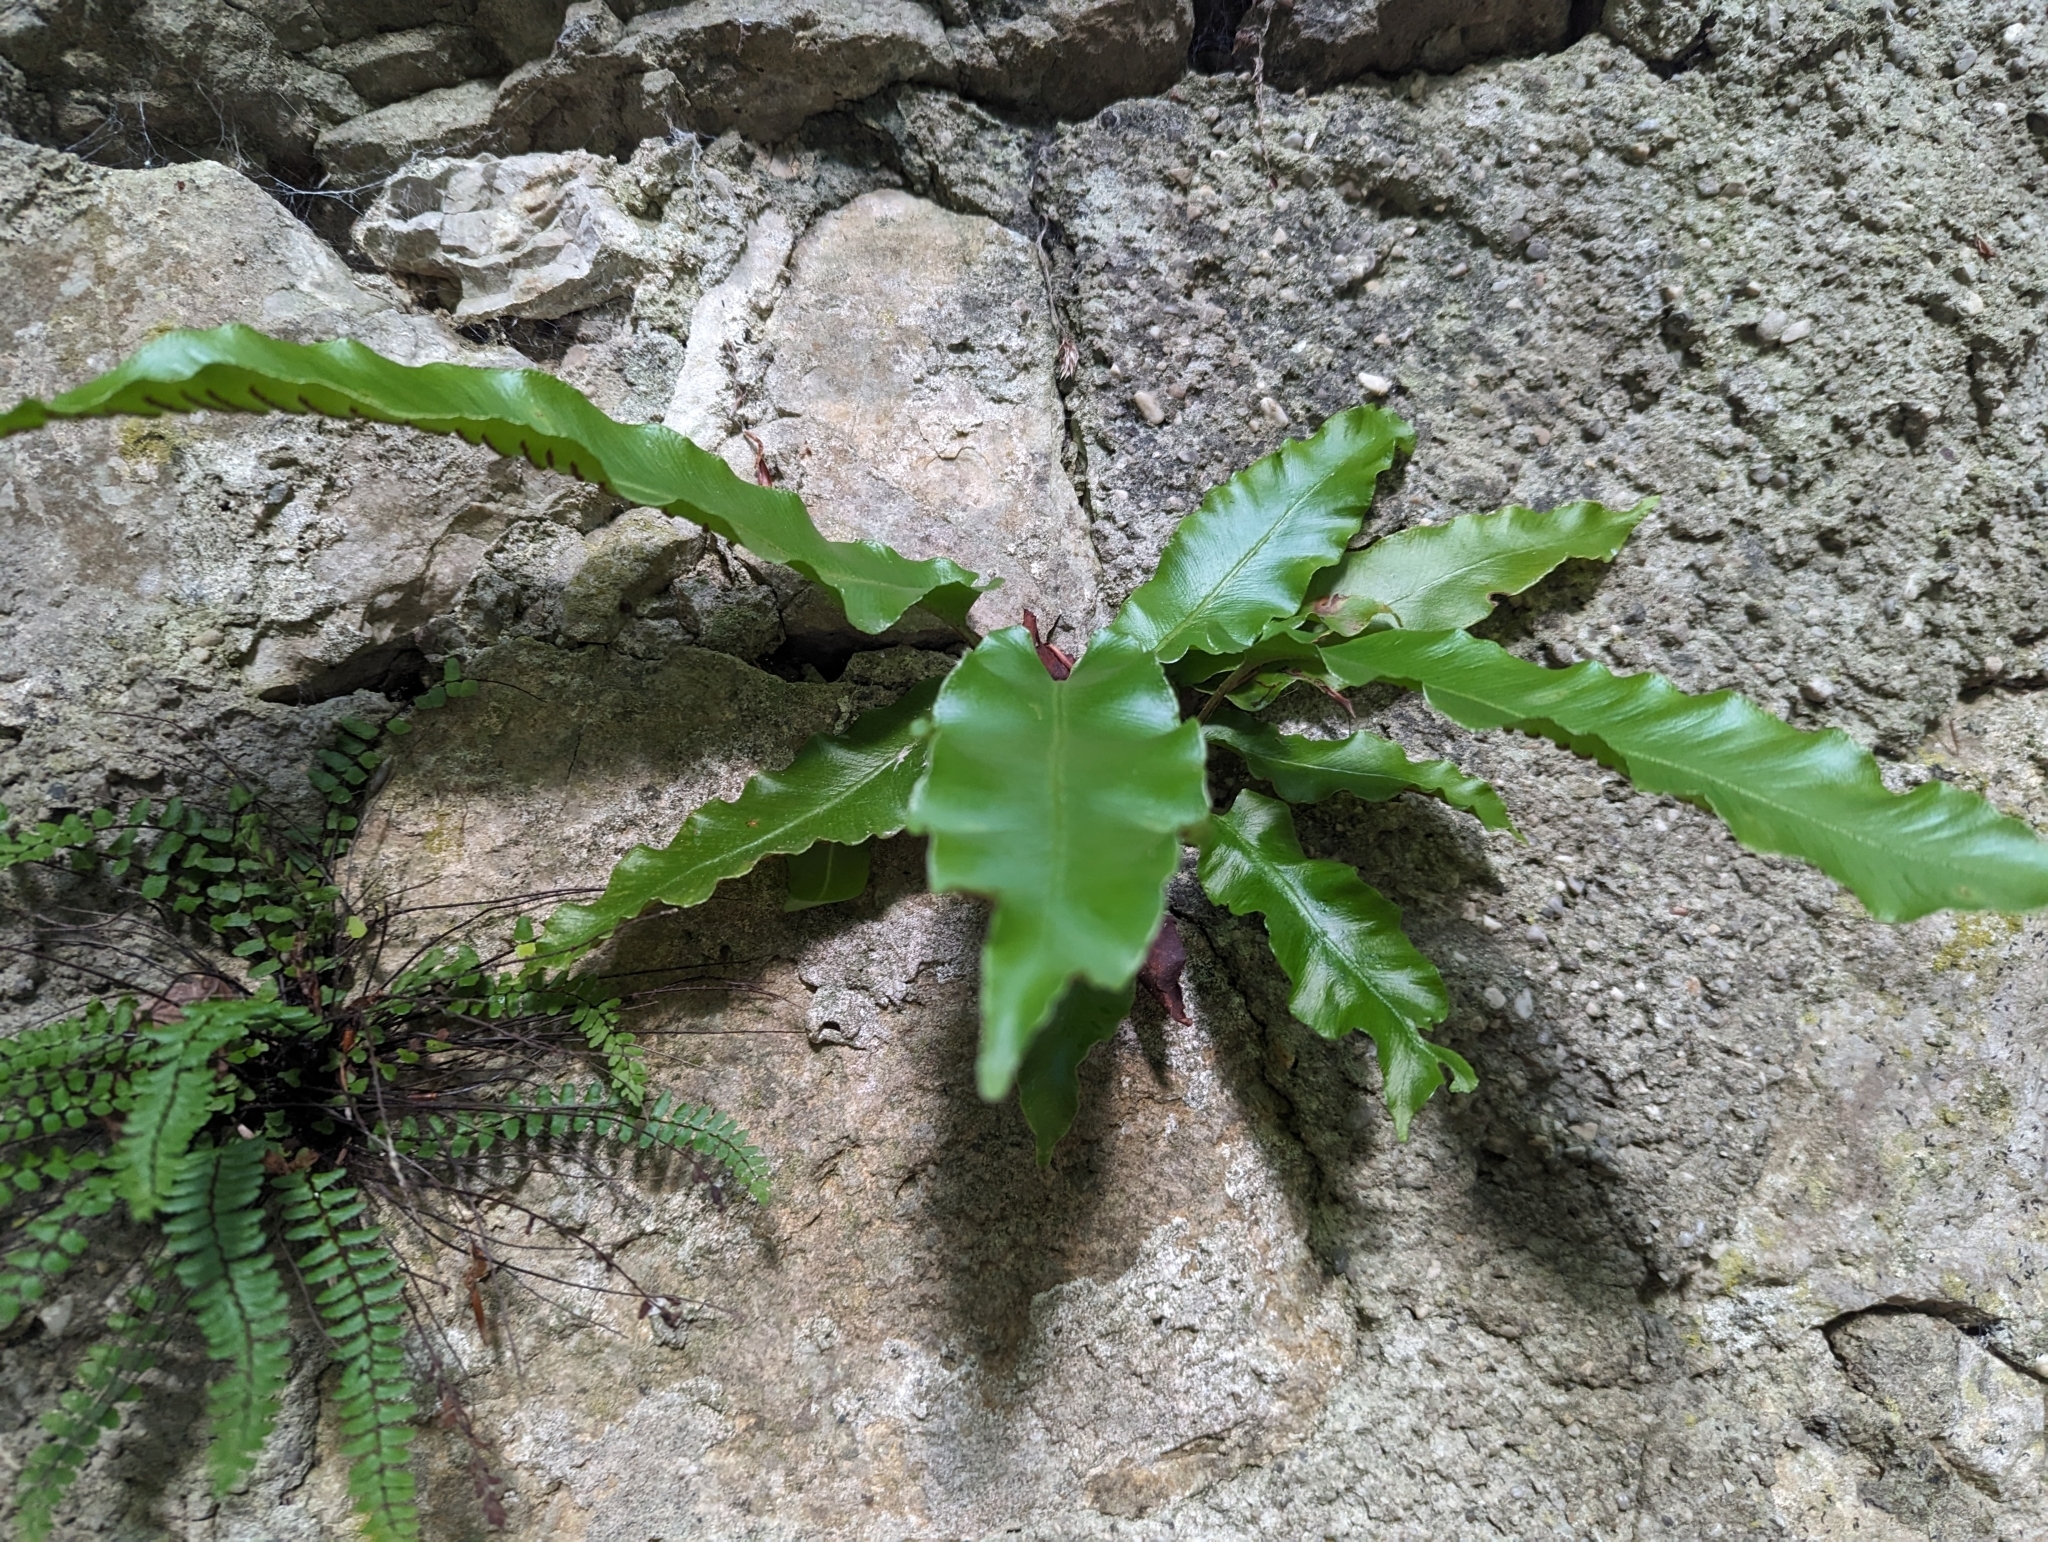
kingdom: Plantae
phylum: Tracheophyta
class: Polypodiopsida
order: Polypodiales
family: Aspleniaceae
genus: Asplenium
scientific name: Asplenium scolopendrium
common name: Hart's-tongue fern
